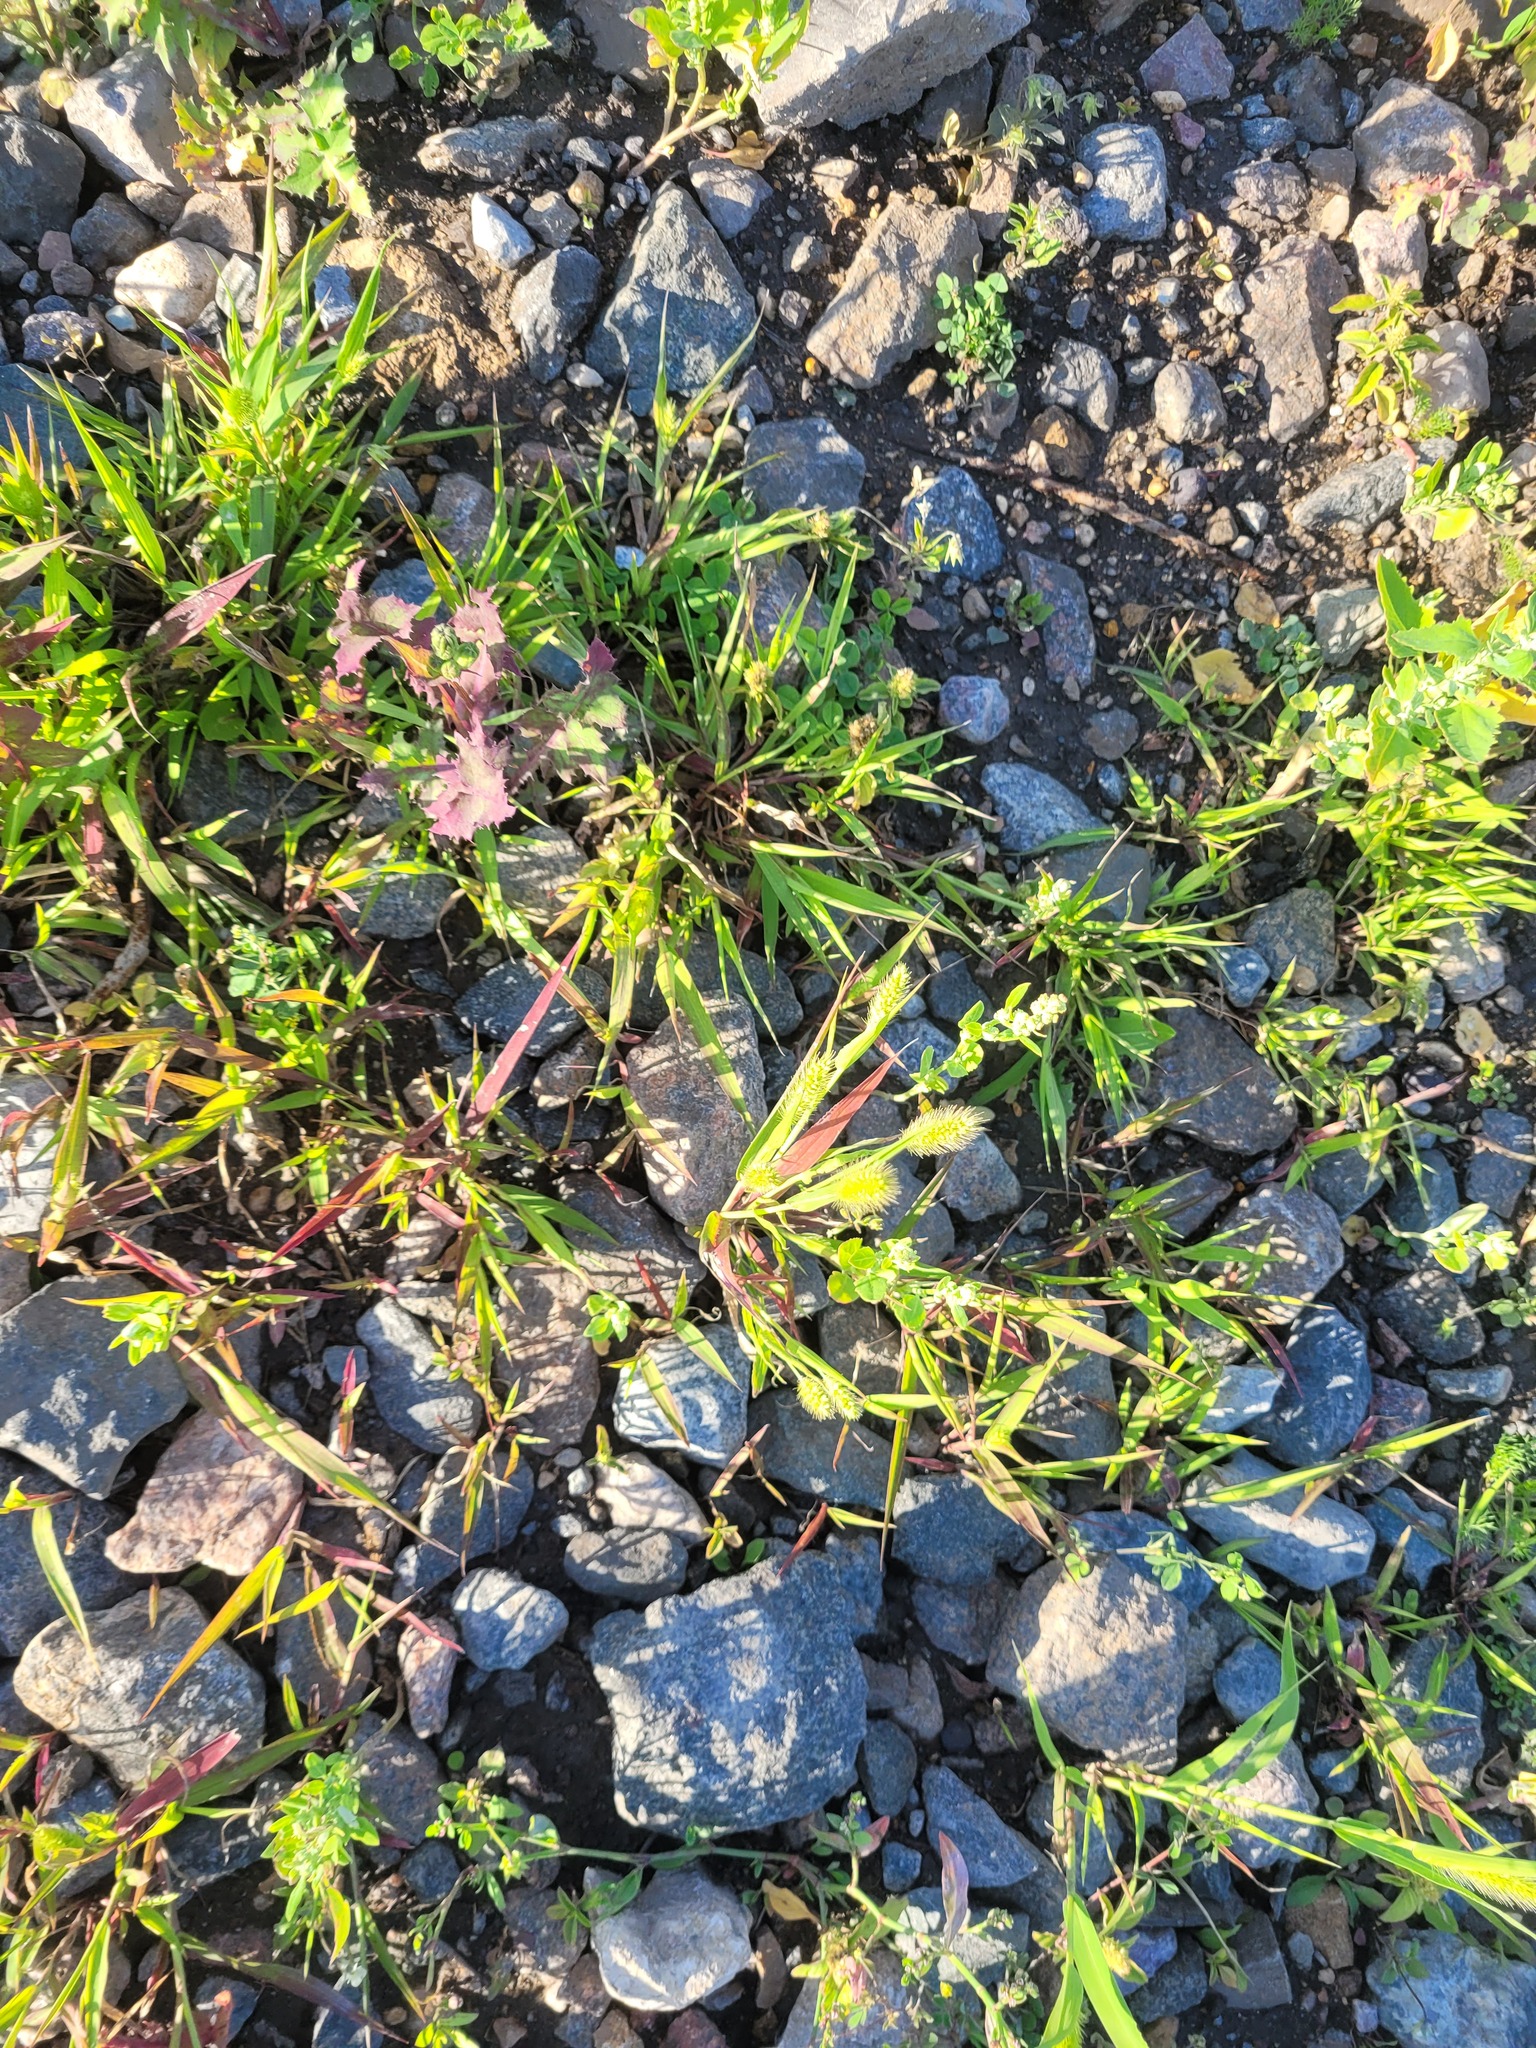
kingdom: Plantae
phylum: Tracheophyta
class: Liliopsida
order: Poales
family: Poaceae
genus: Setaria
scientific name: Setaria viridis
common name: Green bristlegrass
